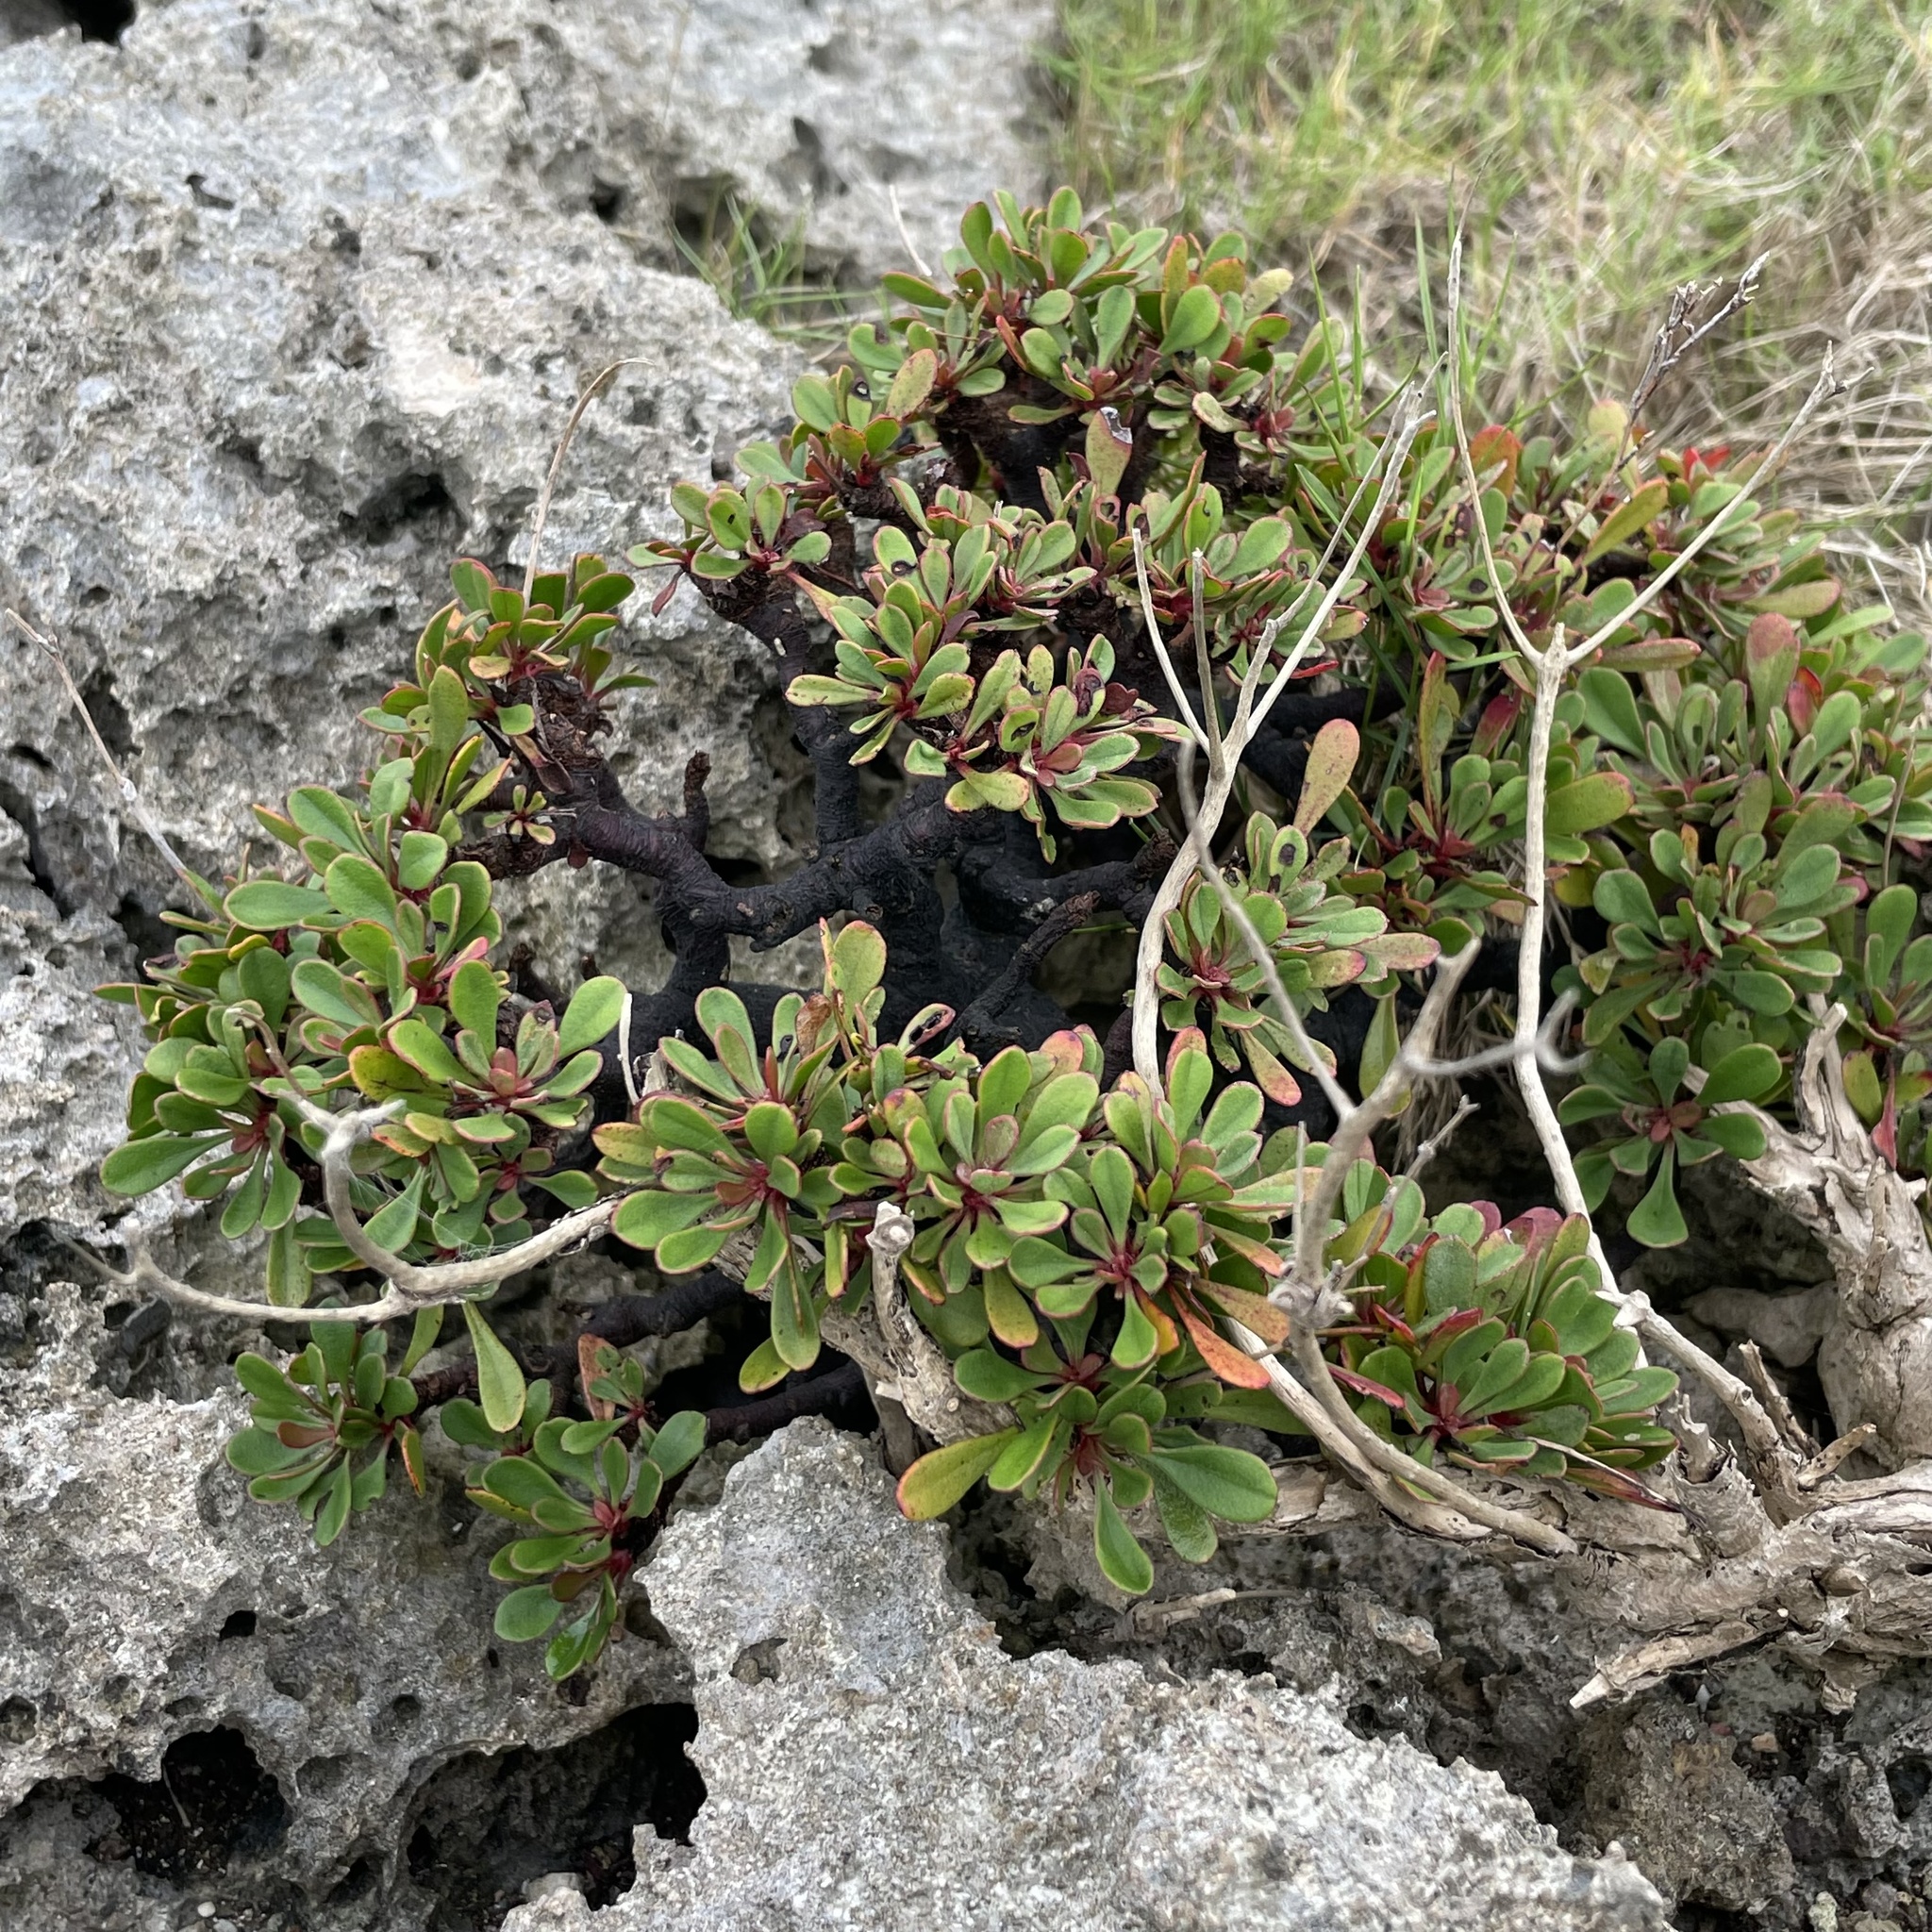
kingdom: Plantae
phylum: Tracheophyta
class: Magnoliopsida
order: Caryophyllales
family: Plumbaginaceae
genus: Limonium
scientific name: Limonium wrightii
